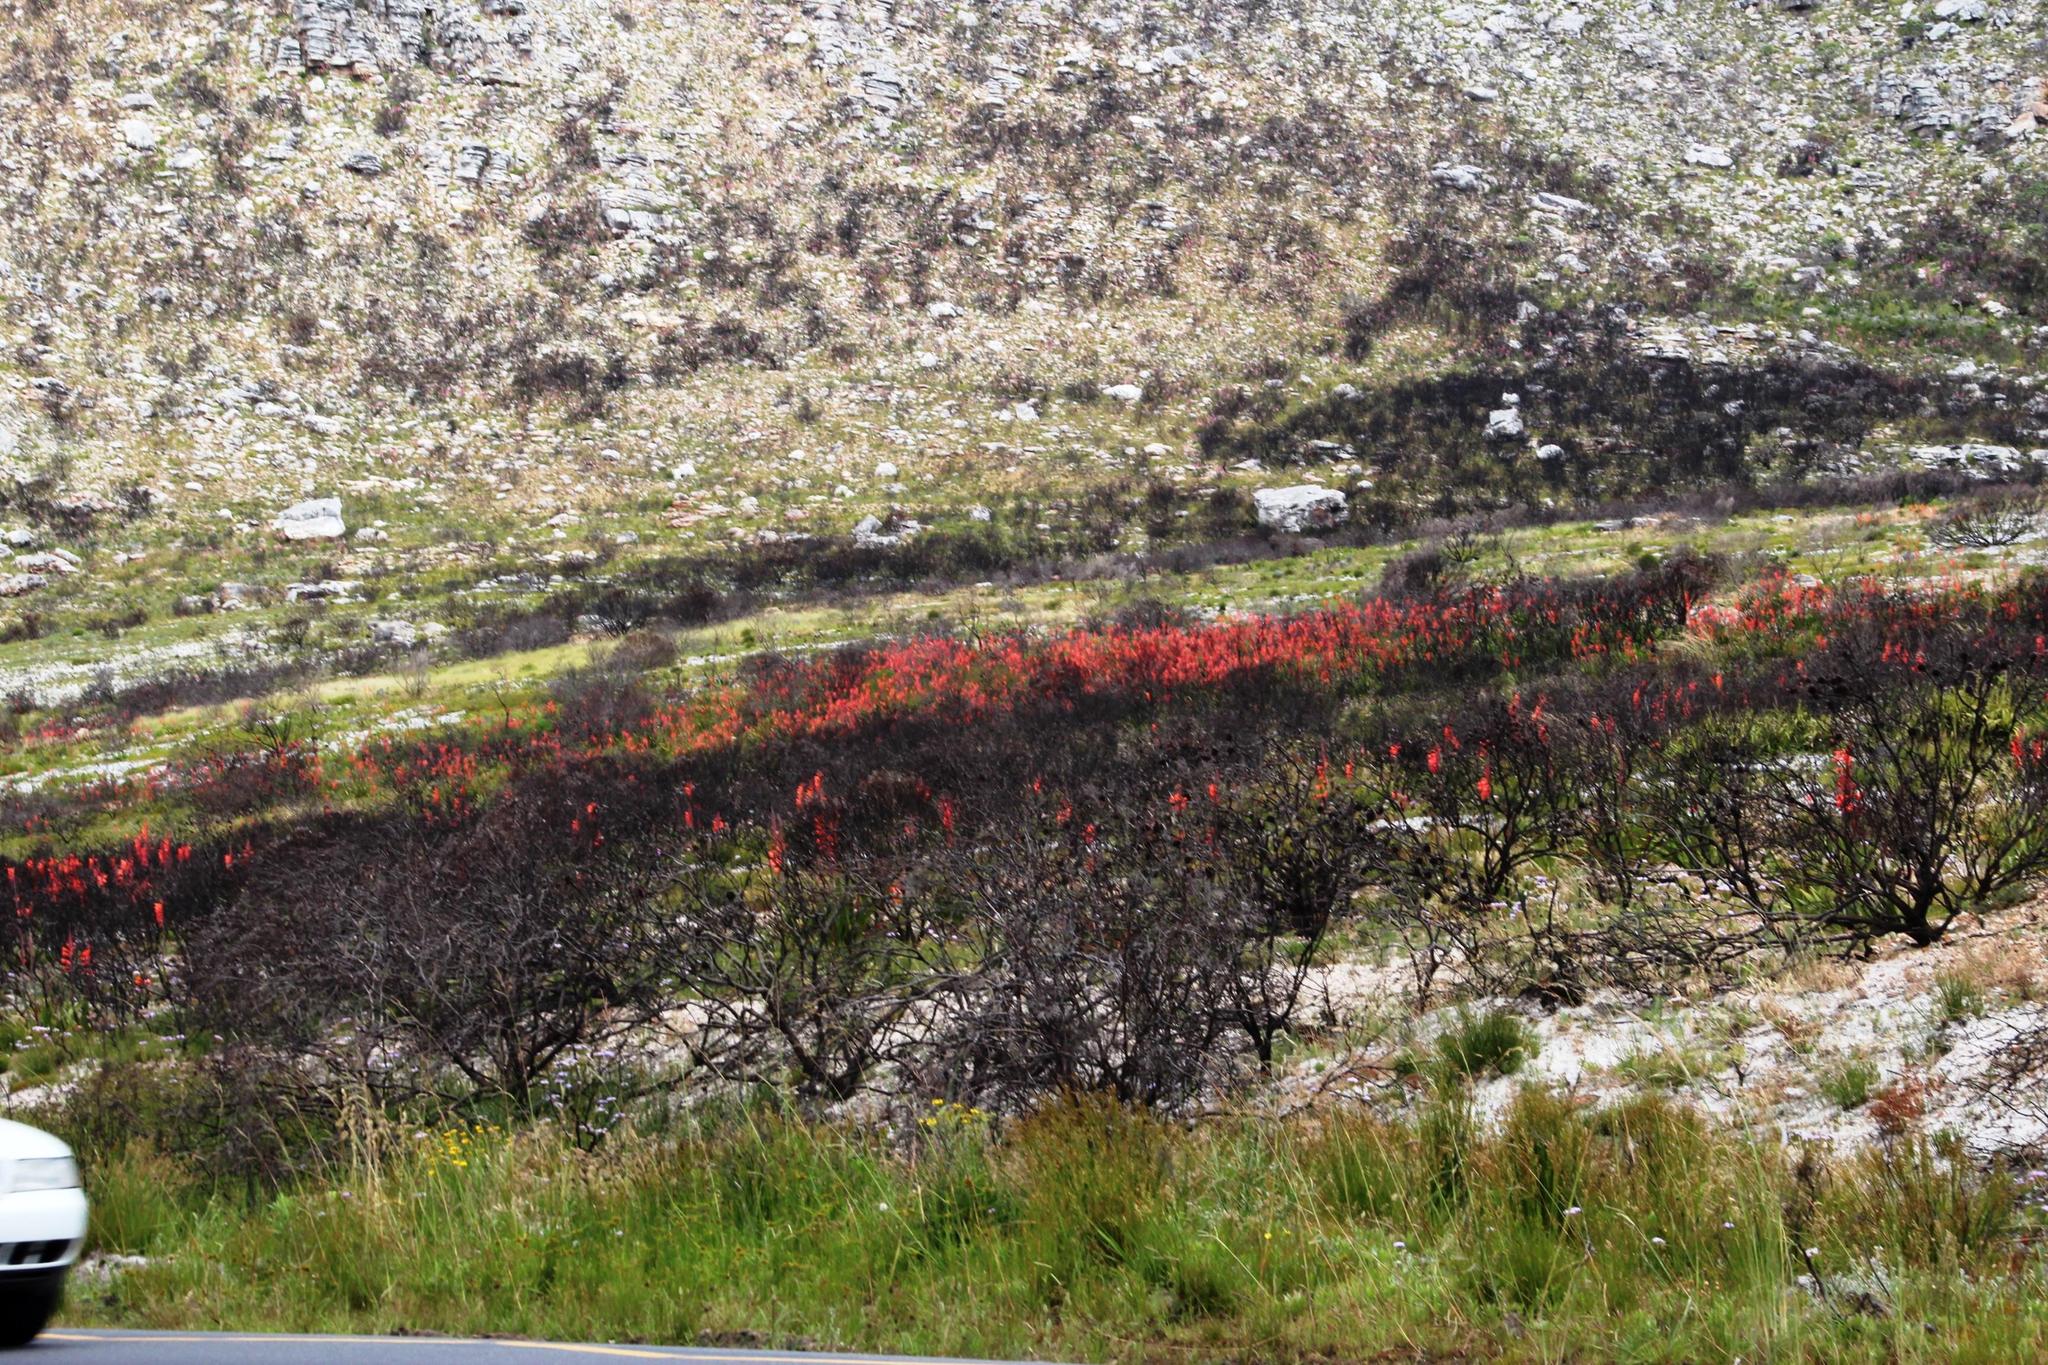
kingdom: Plantae
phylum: Tracheophyta
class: Liliopsida
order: Asparagales
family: Iridaceae
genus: Watsonia
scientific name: Watsonia tabularis
